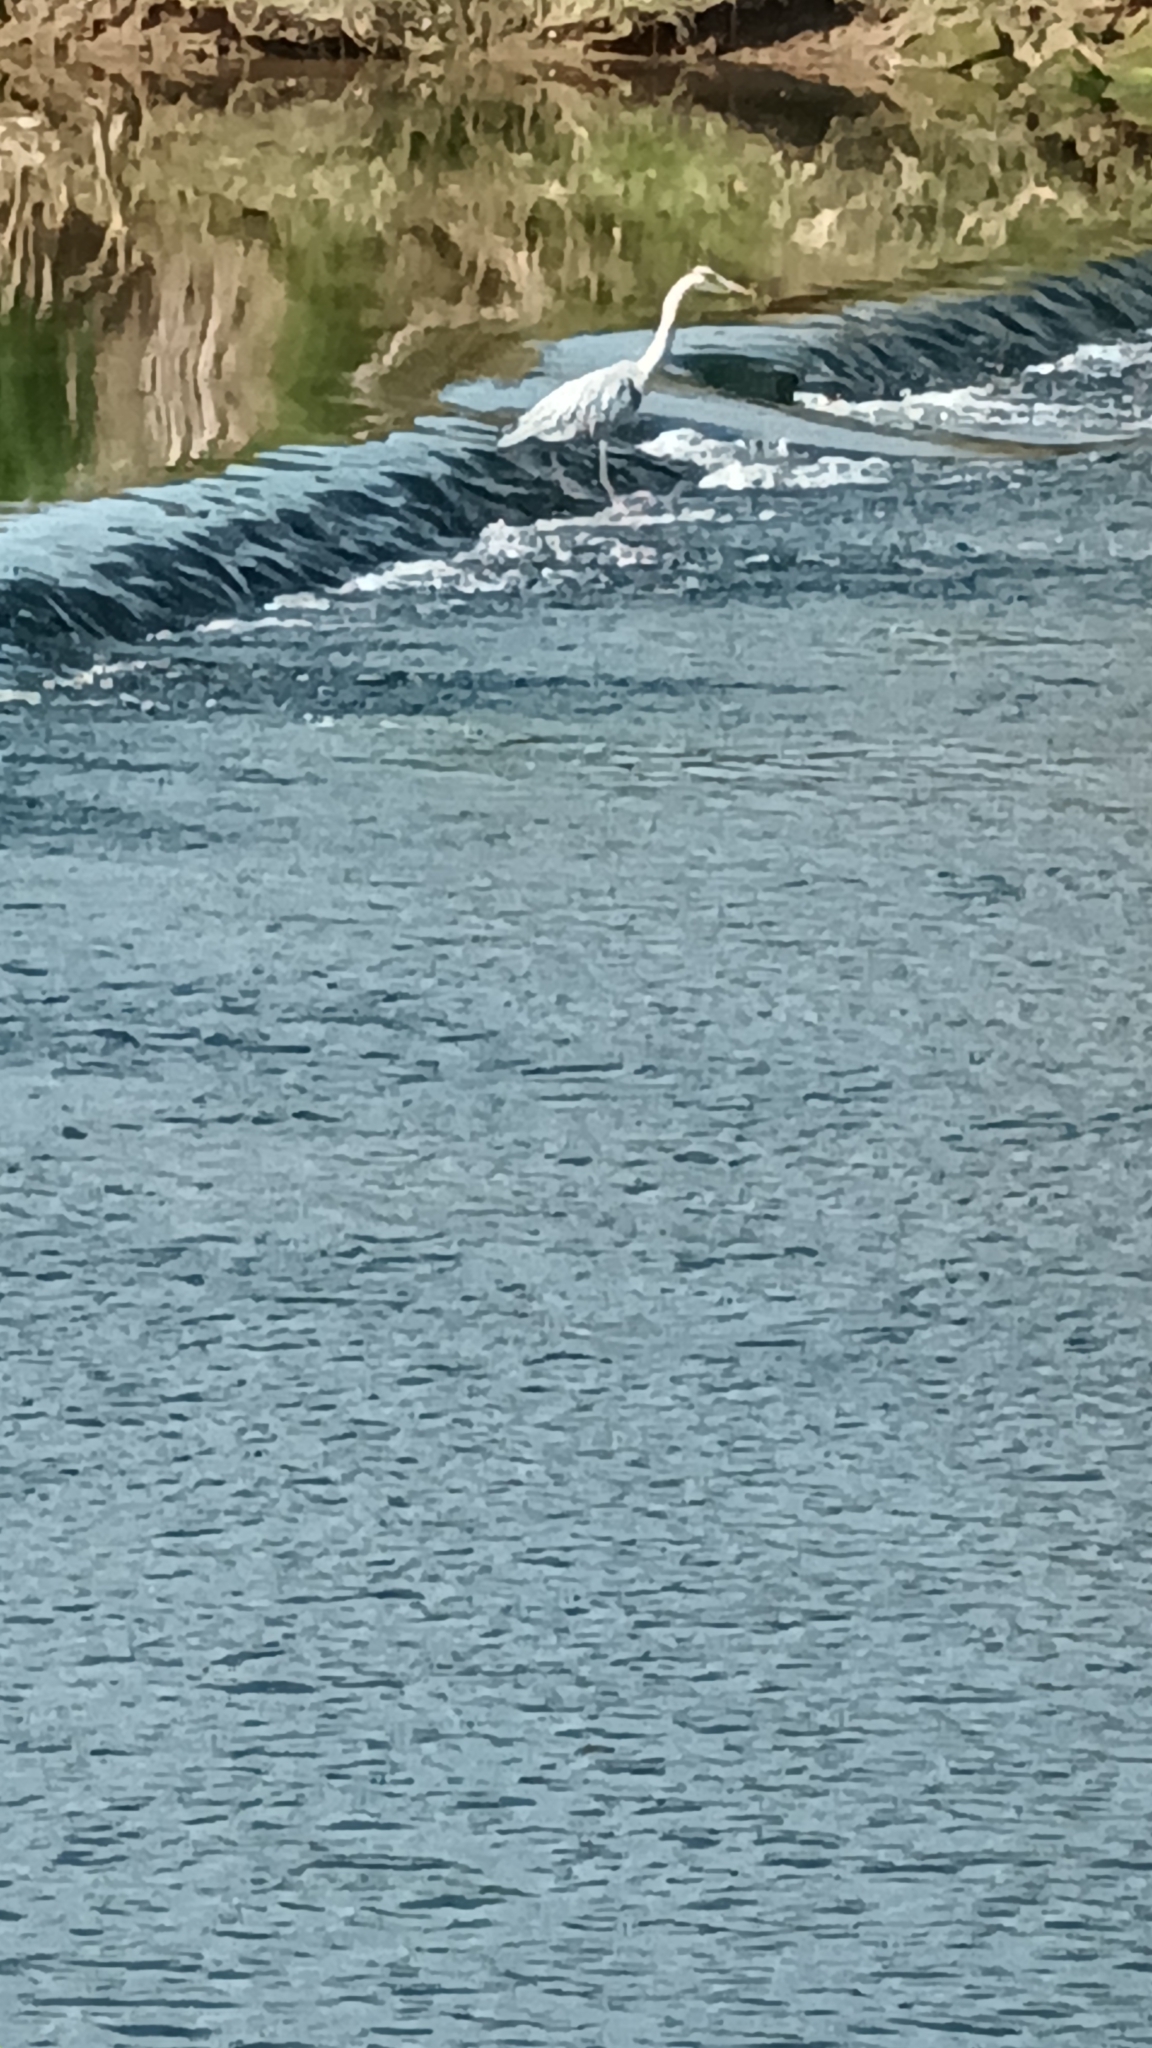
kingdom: Animalia
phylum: Chordata
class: Aves
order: Pelecaniformes
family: Ardeidae
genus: Ardea
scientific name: Ardea cinerea
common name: Grey heron
